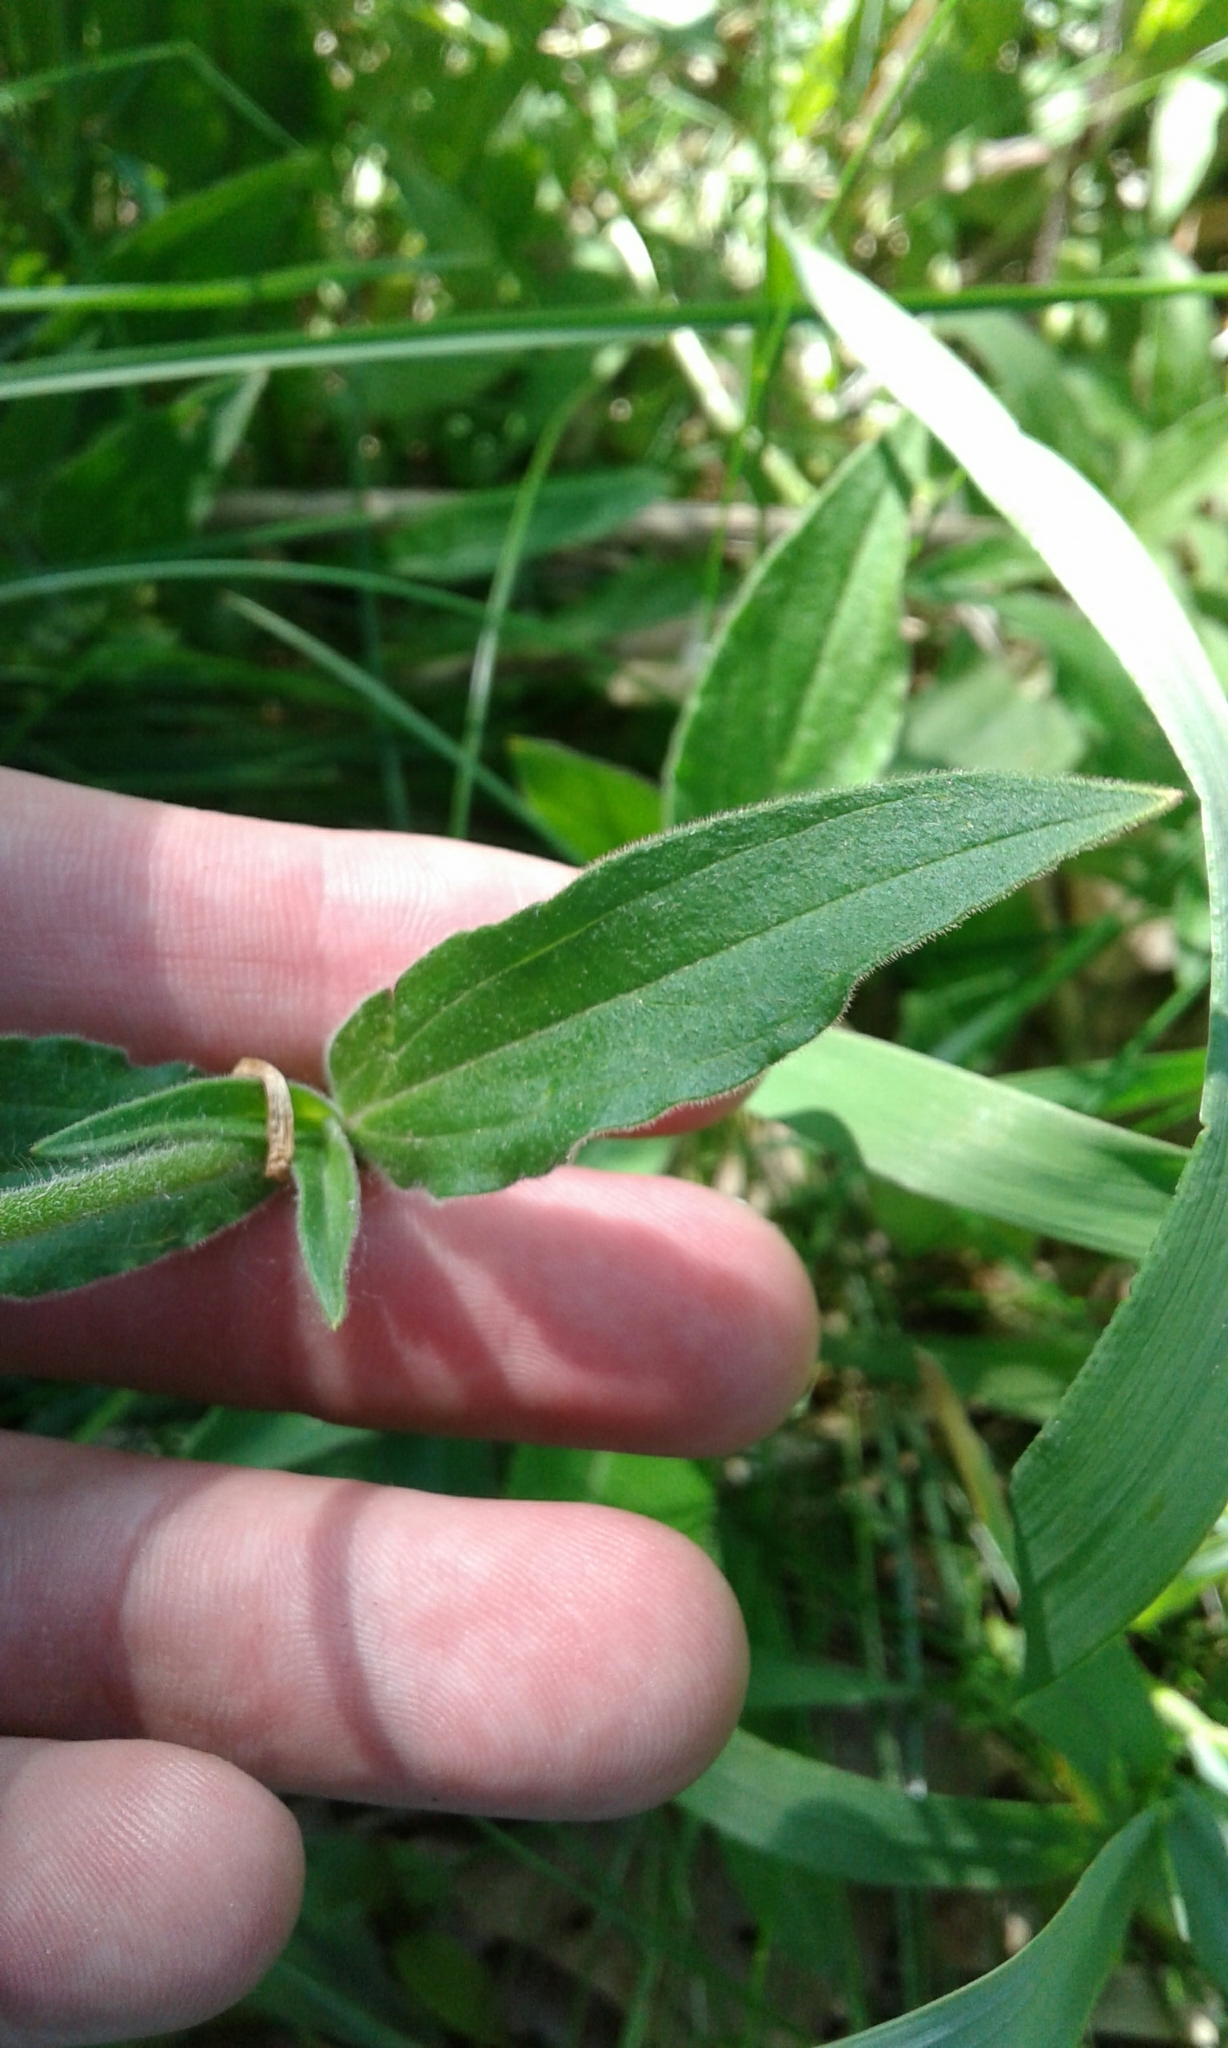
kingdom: Plantae
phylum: Tracheophyta
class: Magnoliopsida
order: Caryophyllales
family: Caryophyllaceae
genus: Silene
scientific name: Silene latifolia
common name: White campion
